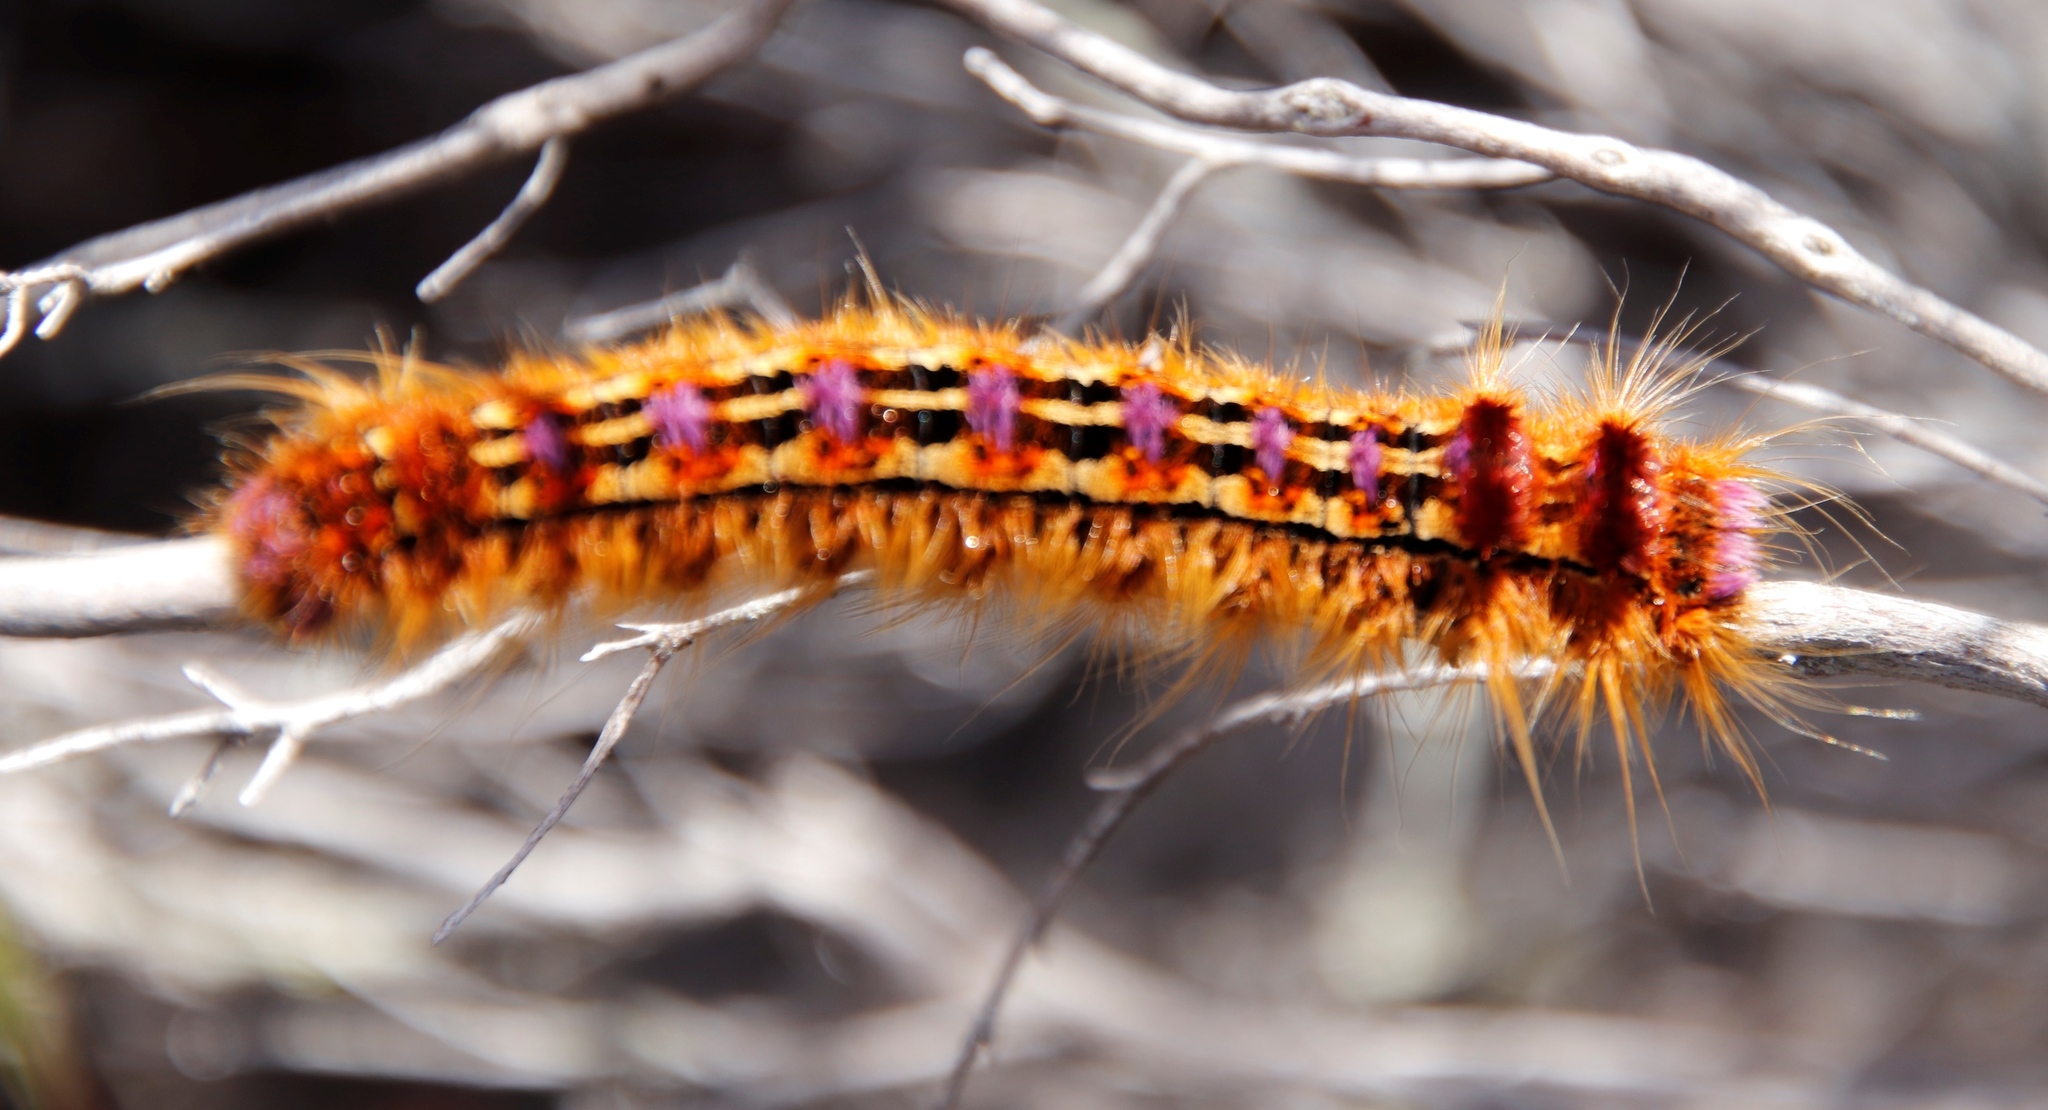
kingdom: Animalia
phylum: Arthropoda
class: Insecta
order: Lepidoptera
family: Lasiocampidae
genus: Eutricha
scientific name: Eutricha bifascia
